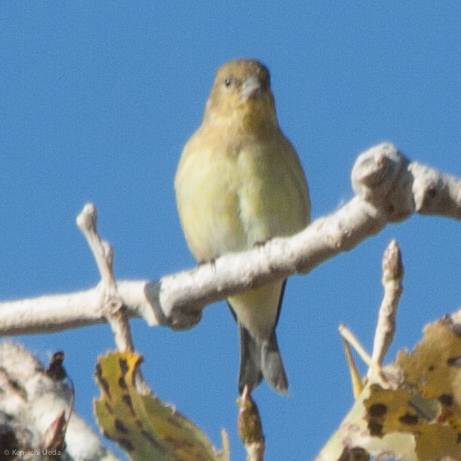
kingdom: Animalia
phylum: Chordata
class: Aves
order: Passeriformes
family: Fringillidae
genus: Spinus
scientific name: Spinus tristis
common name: American goldfinch
